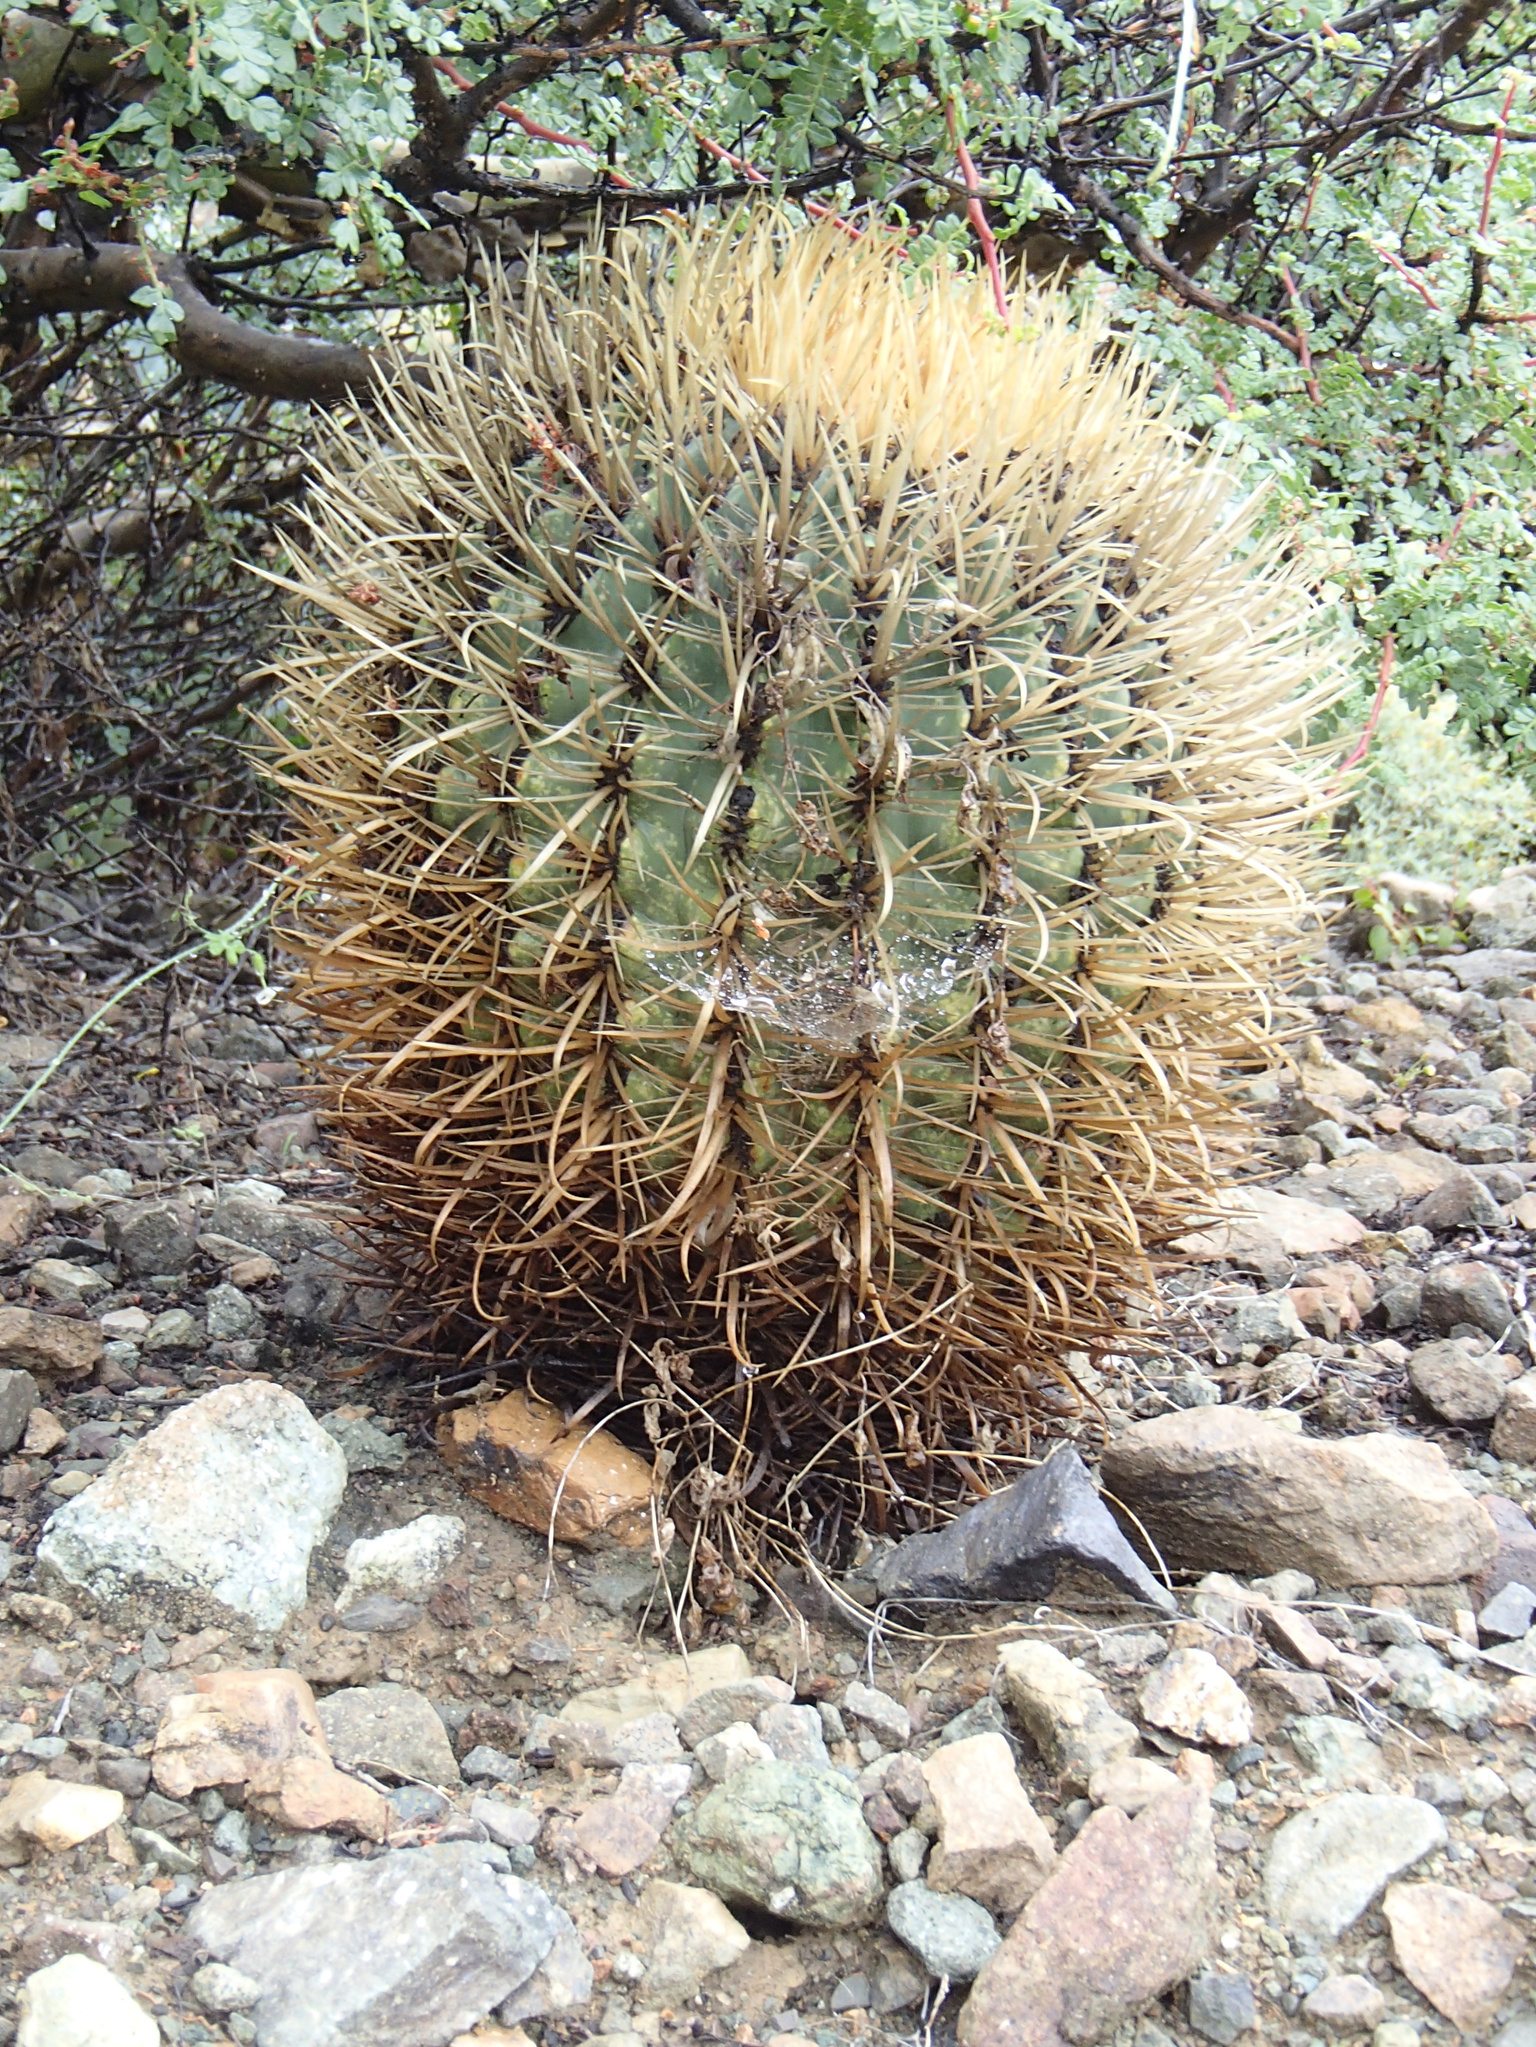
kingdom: Plantae
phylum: Tracheophyta
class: Magnoliopsida
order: Caryophyllales
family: Cactaceae
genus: Ferocactus
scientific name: Ferocactus chrysacanthus
